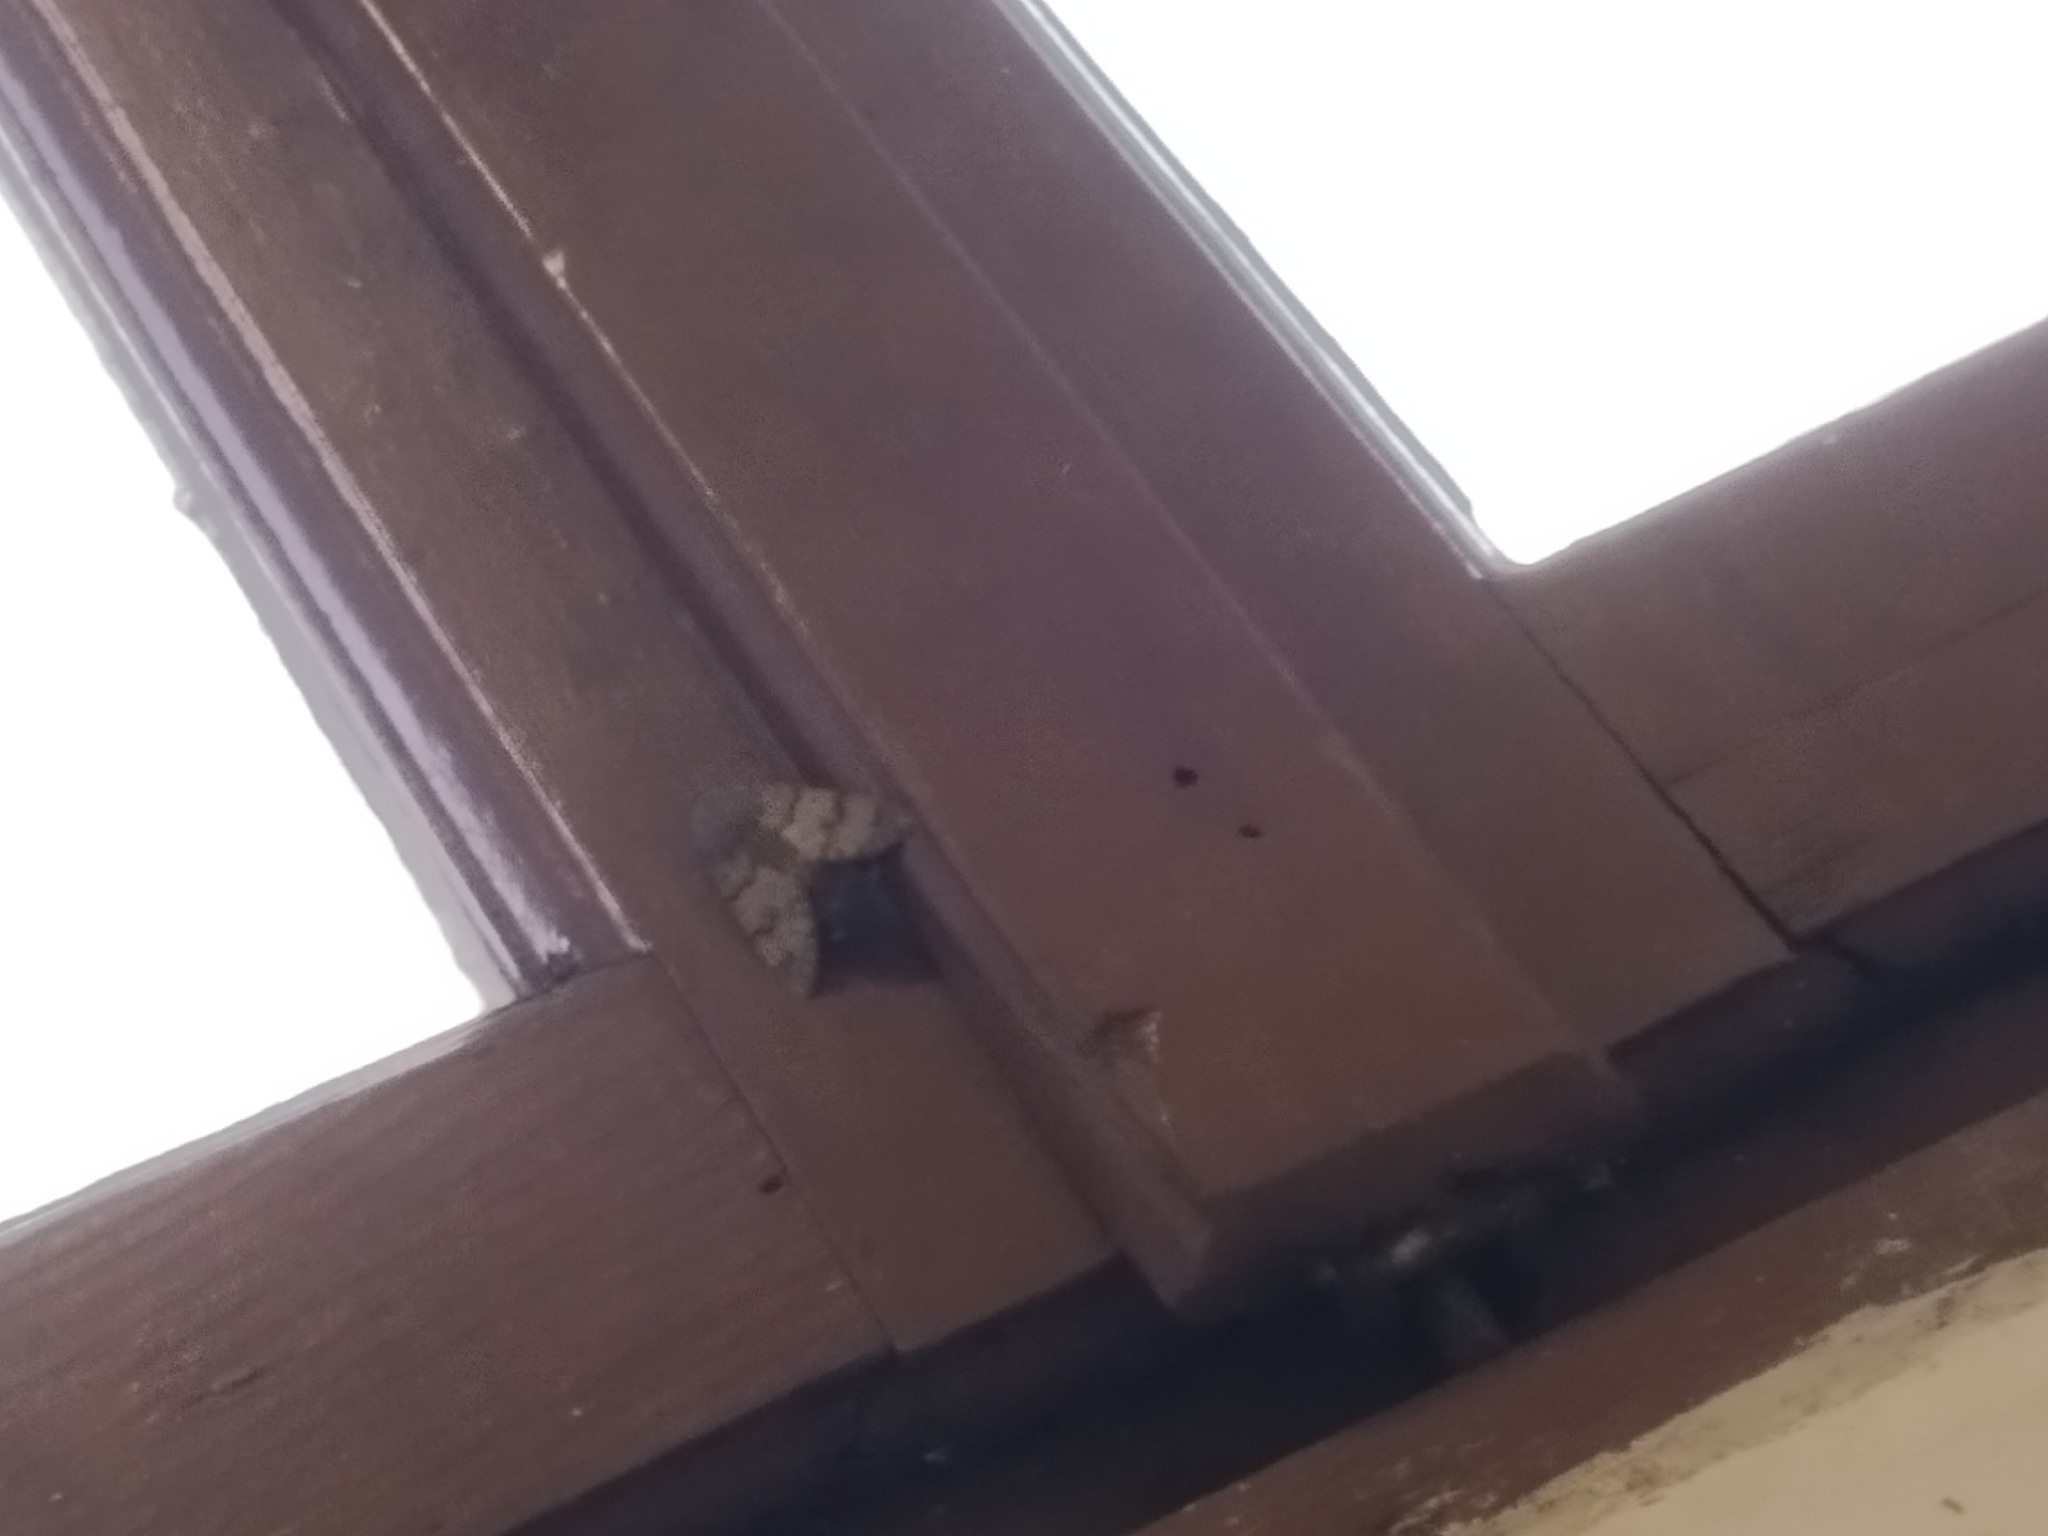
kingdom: Animalia
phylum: Arthropoda
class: Insecta
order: Lepidoptera
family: Sphingidae
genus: Macroglossum
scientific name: Macroglossum stellatarum
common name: Humming-bird hawk-moth
